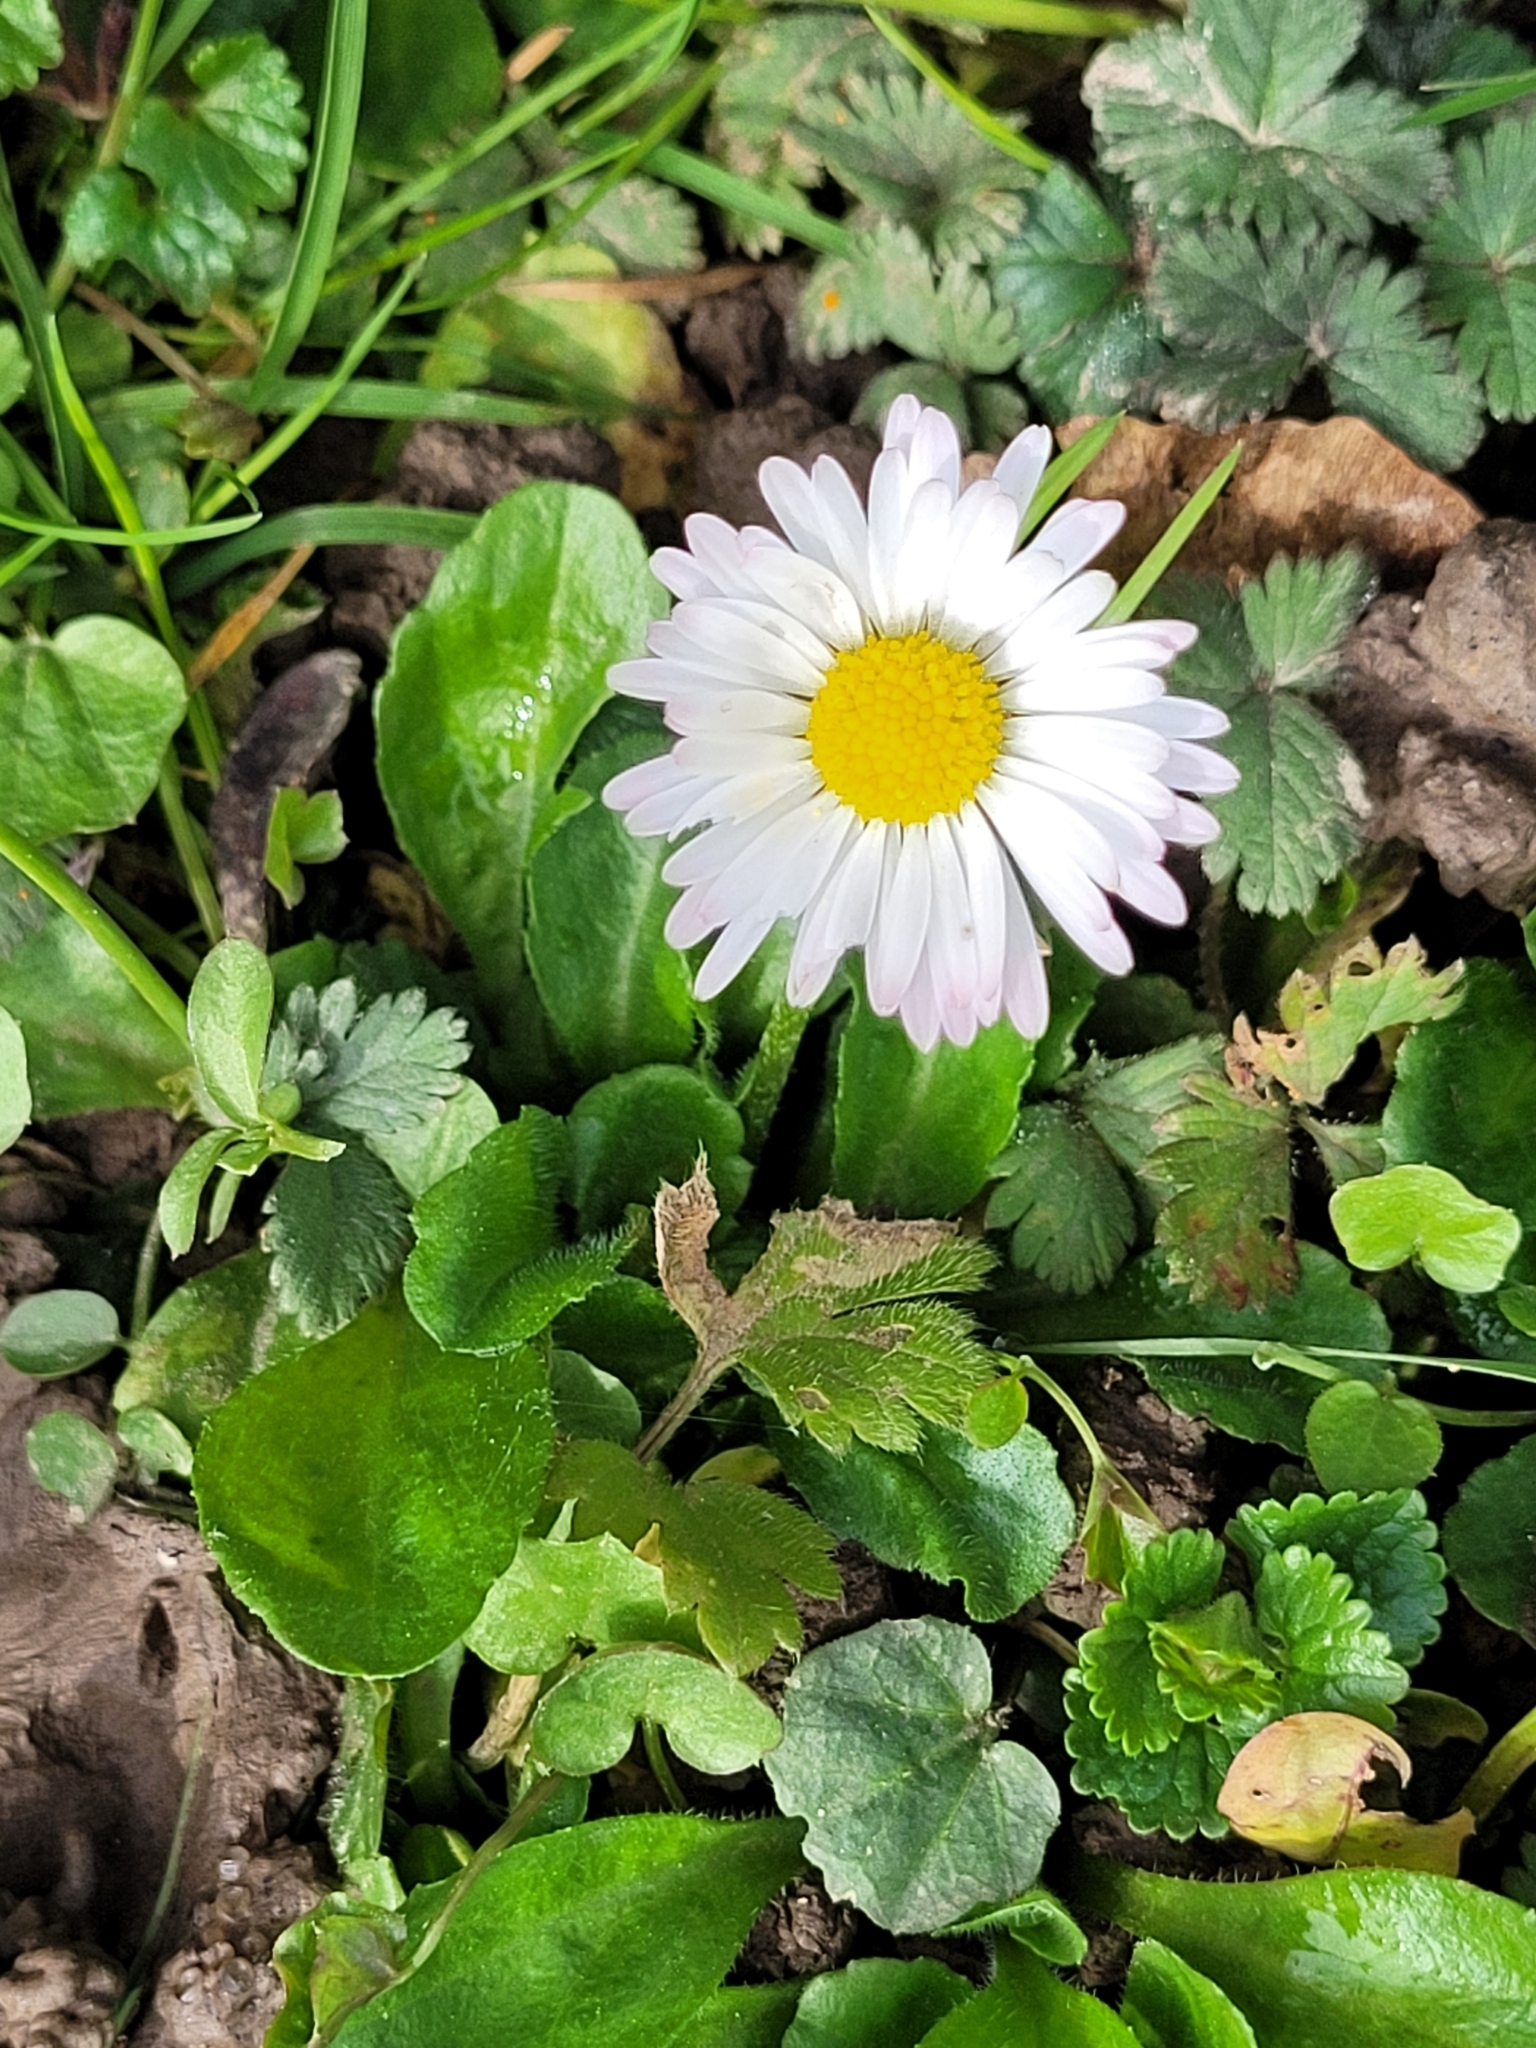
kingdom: Plantae
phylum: Tracheophyta
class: Magnoliopsida
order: Asterales
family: Asteraceae
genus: Bellis
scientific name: Bellis perennis
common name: Lawndaisy
